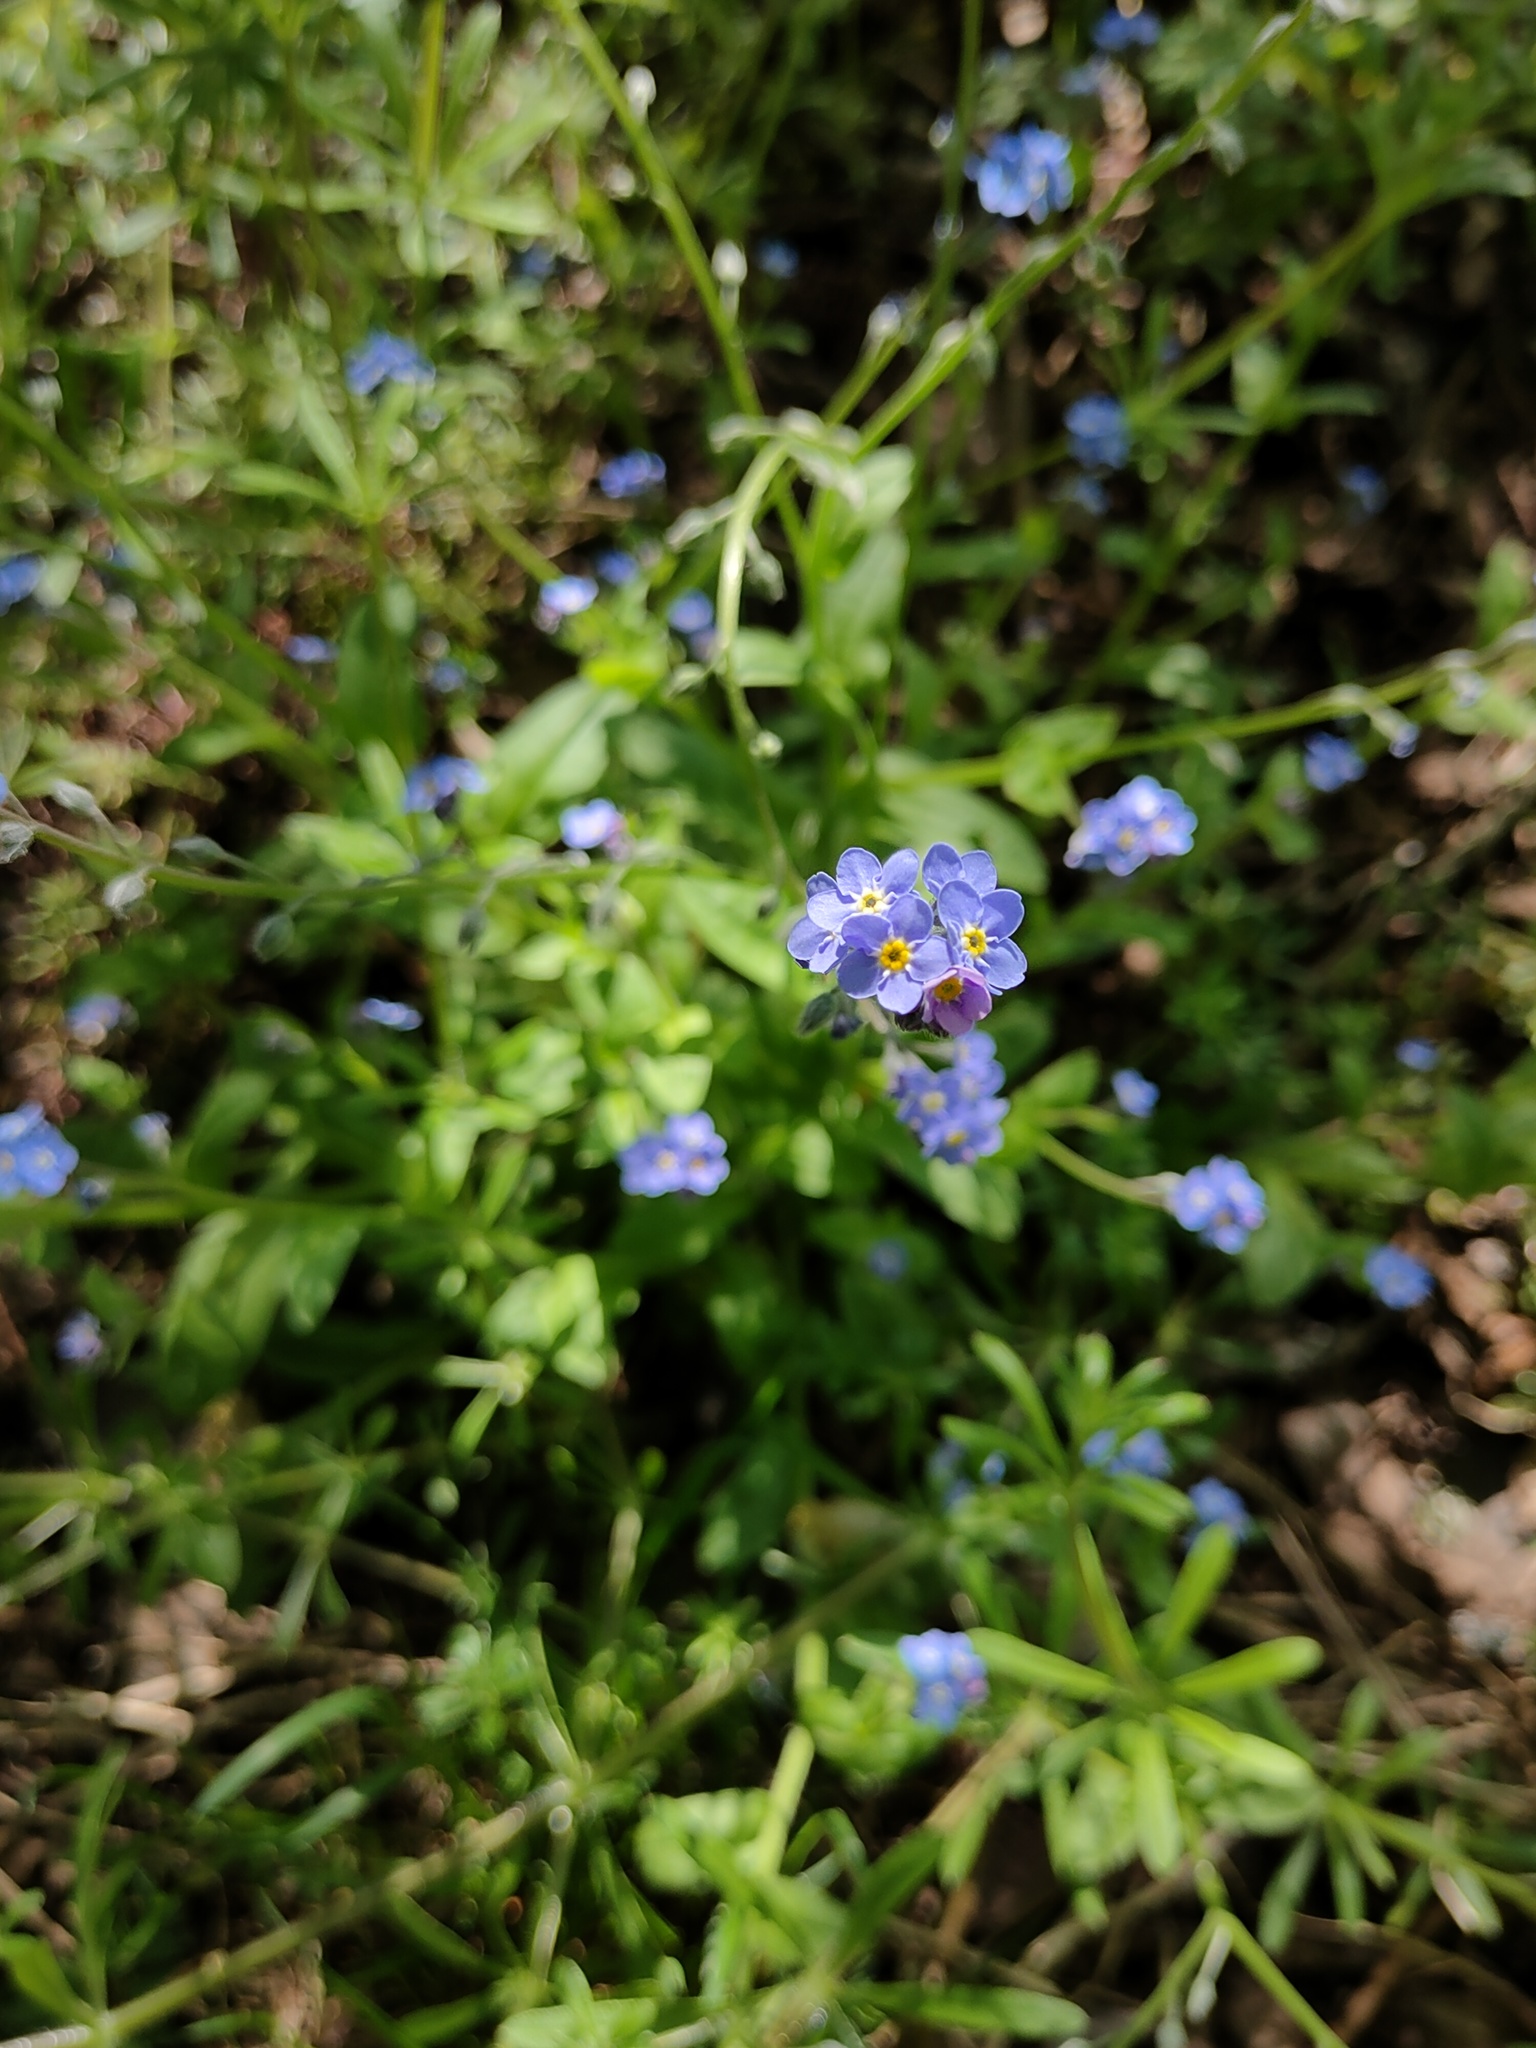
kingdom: Plantae
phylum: Tracheophyta
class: Magnoliopsida
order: Boraginales
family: Boraginaceae
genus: Myosotis
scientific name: Myosotis sylvatica
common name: Wood forget-me-not
